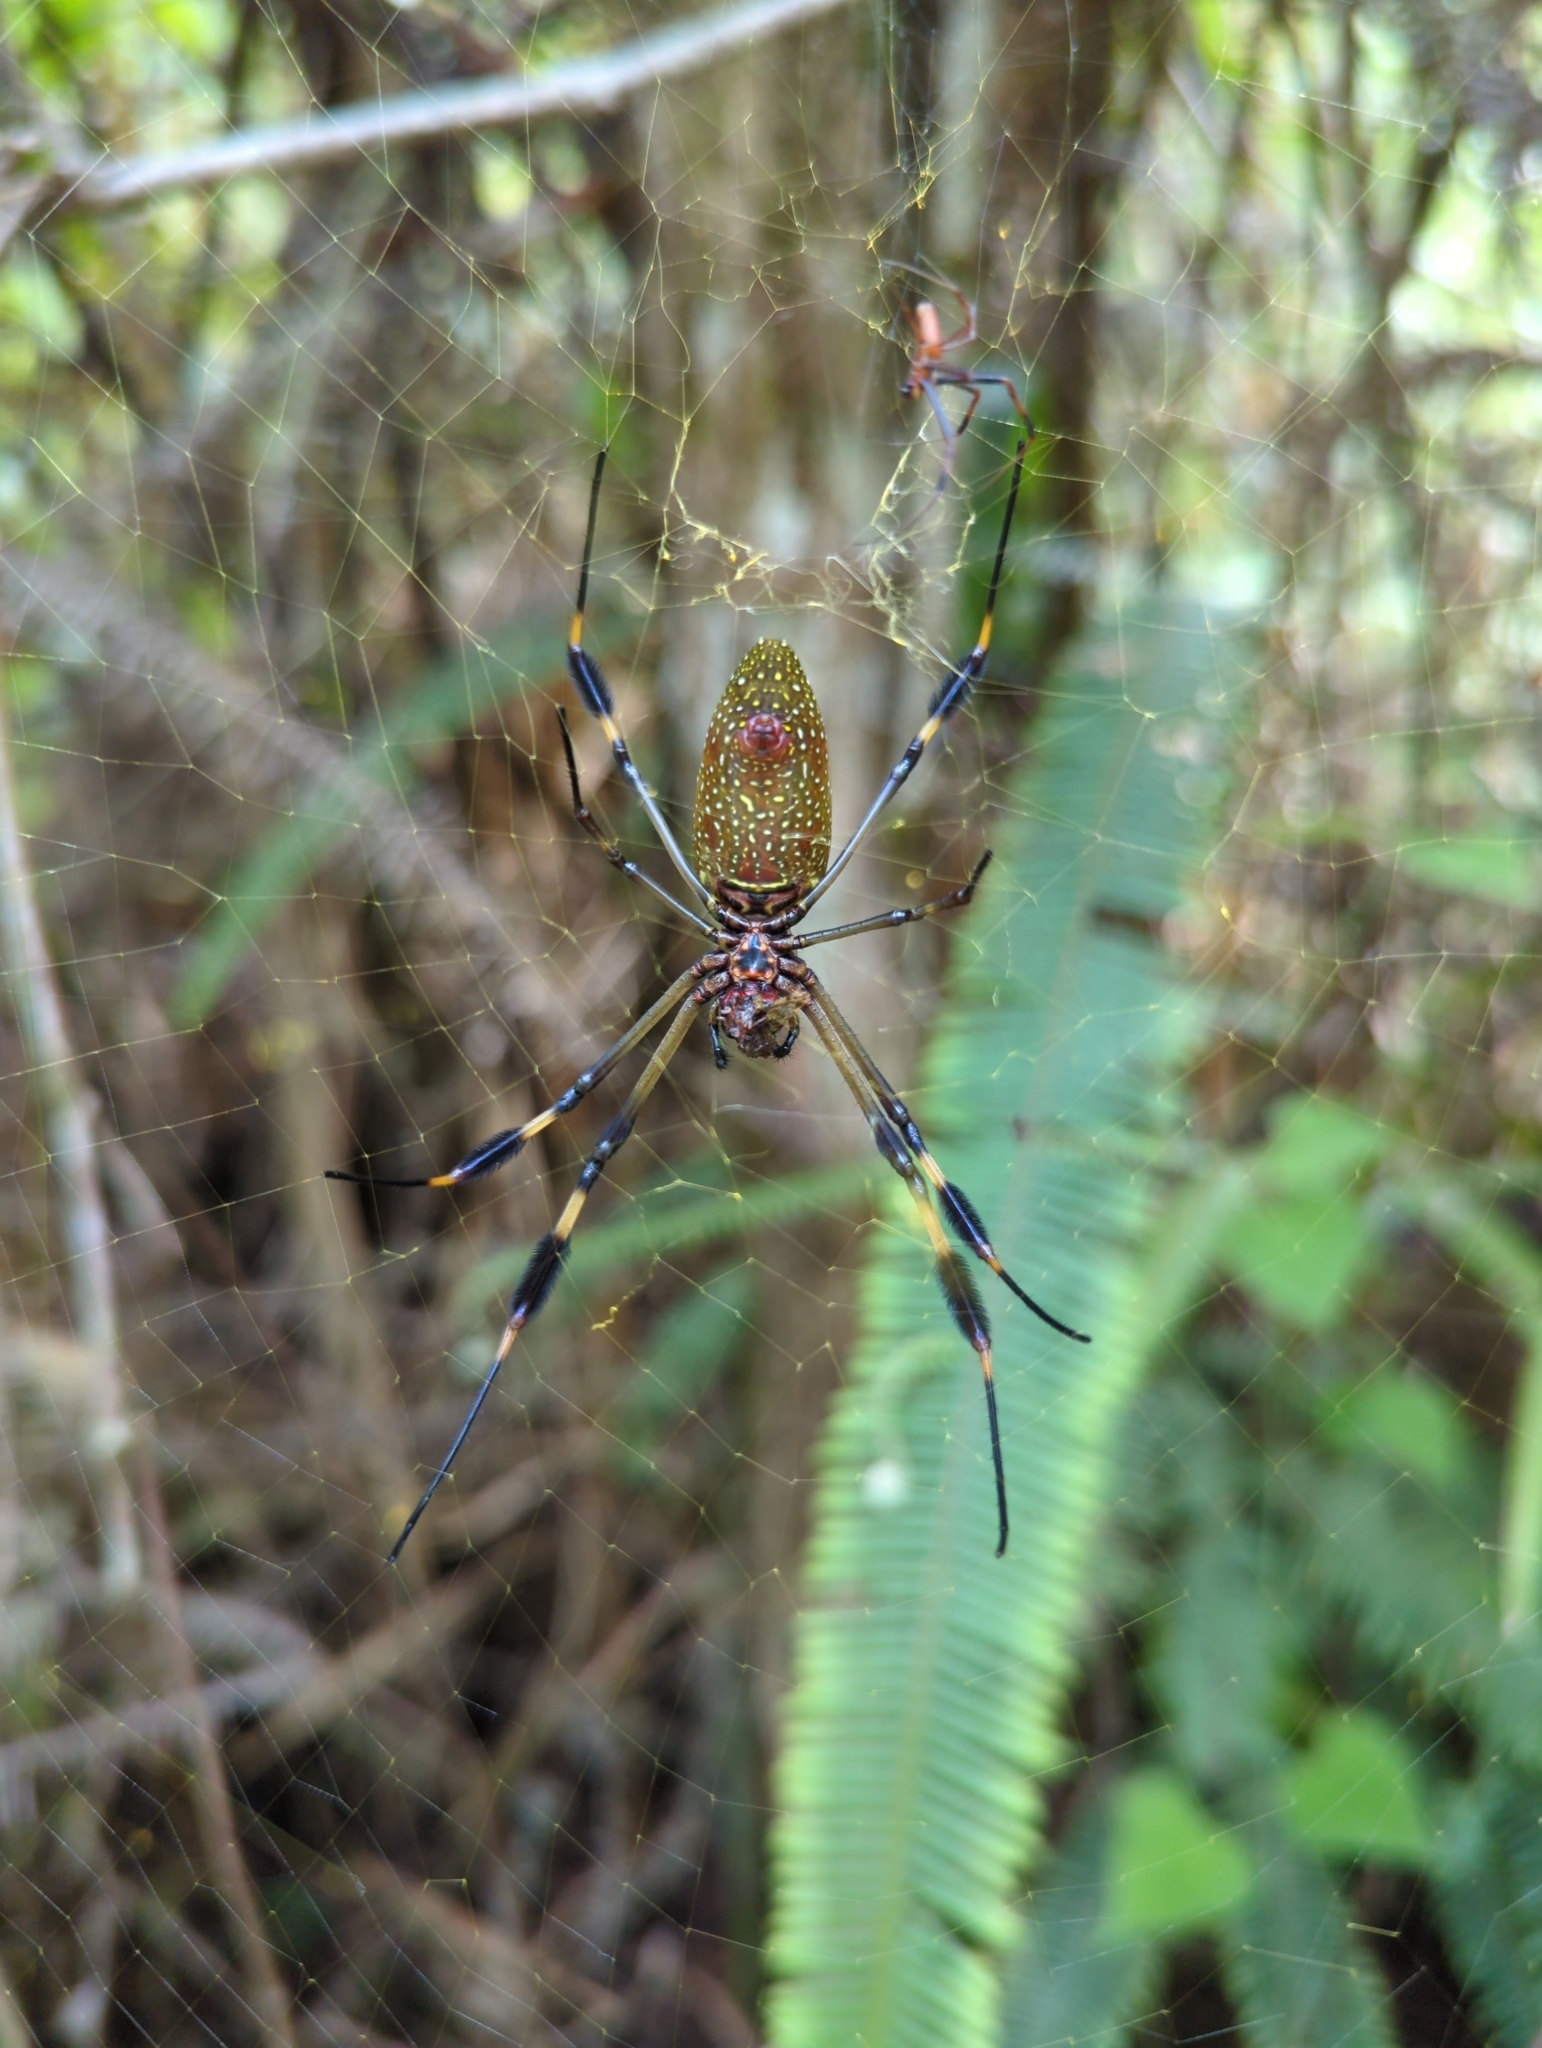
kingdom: Animalia
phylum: Arthropoda
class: Arachnida
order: Araneae
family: Araneidae
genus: Trichonephila
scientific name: Trichonephila clavipes
